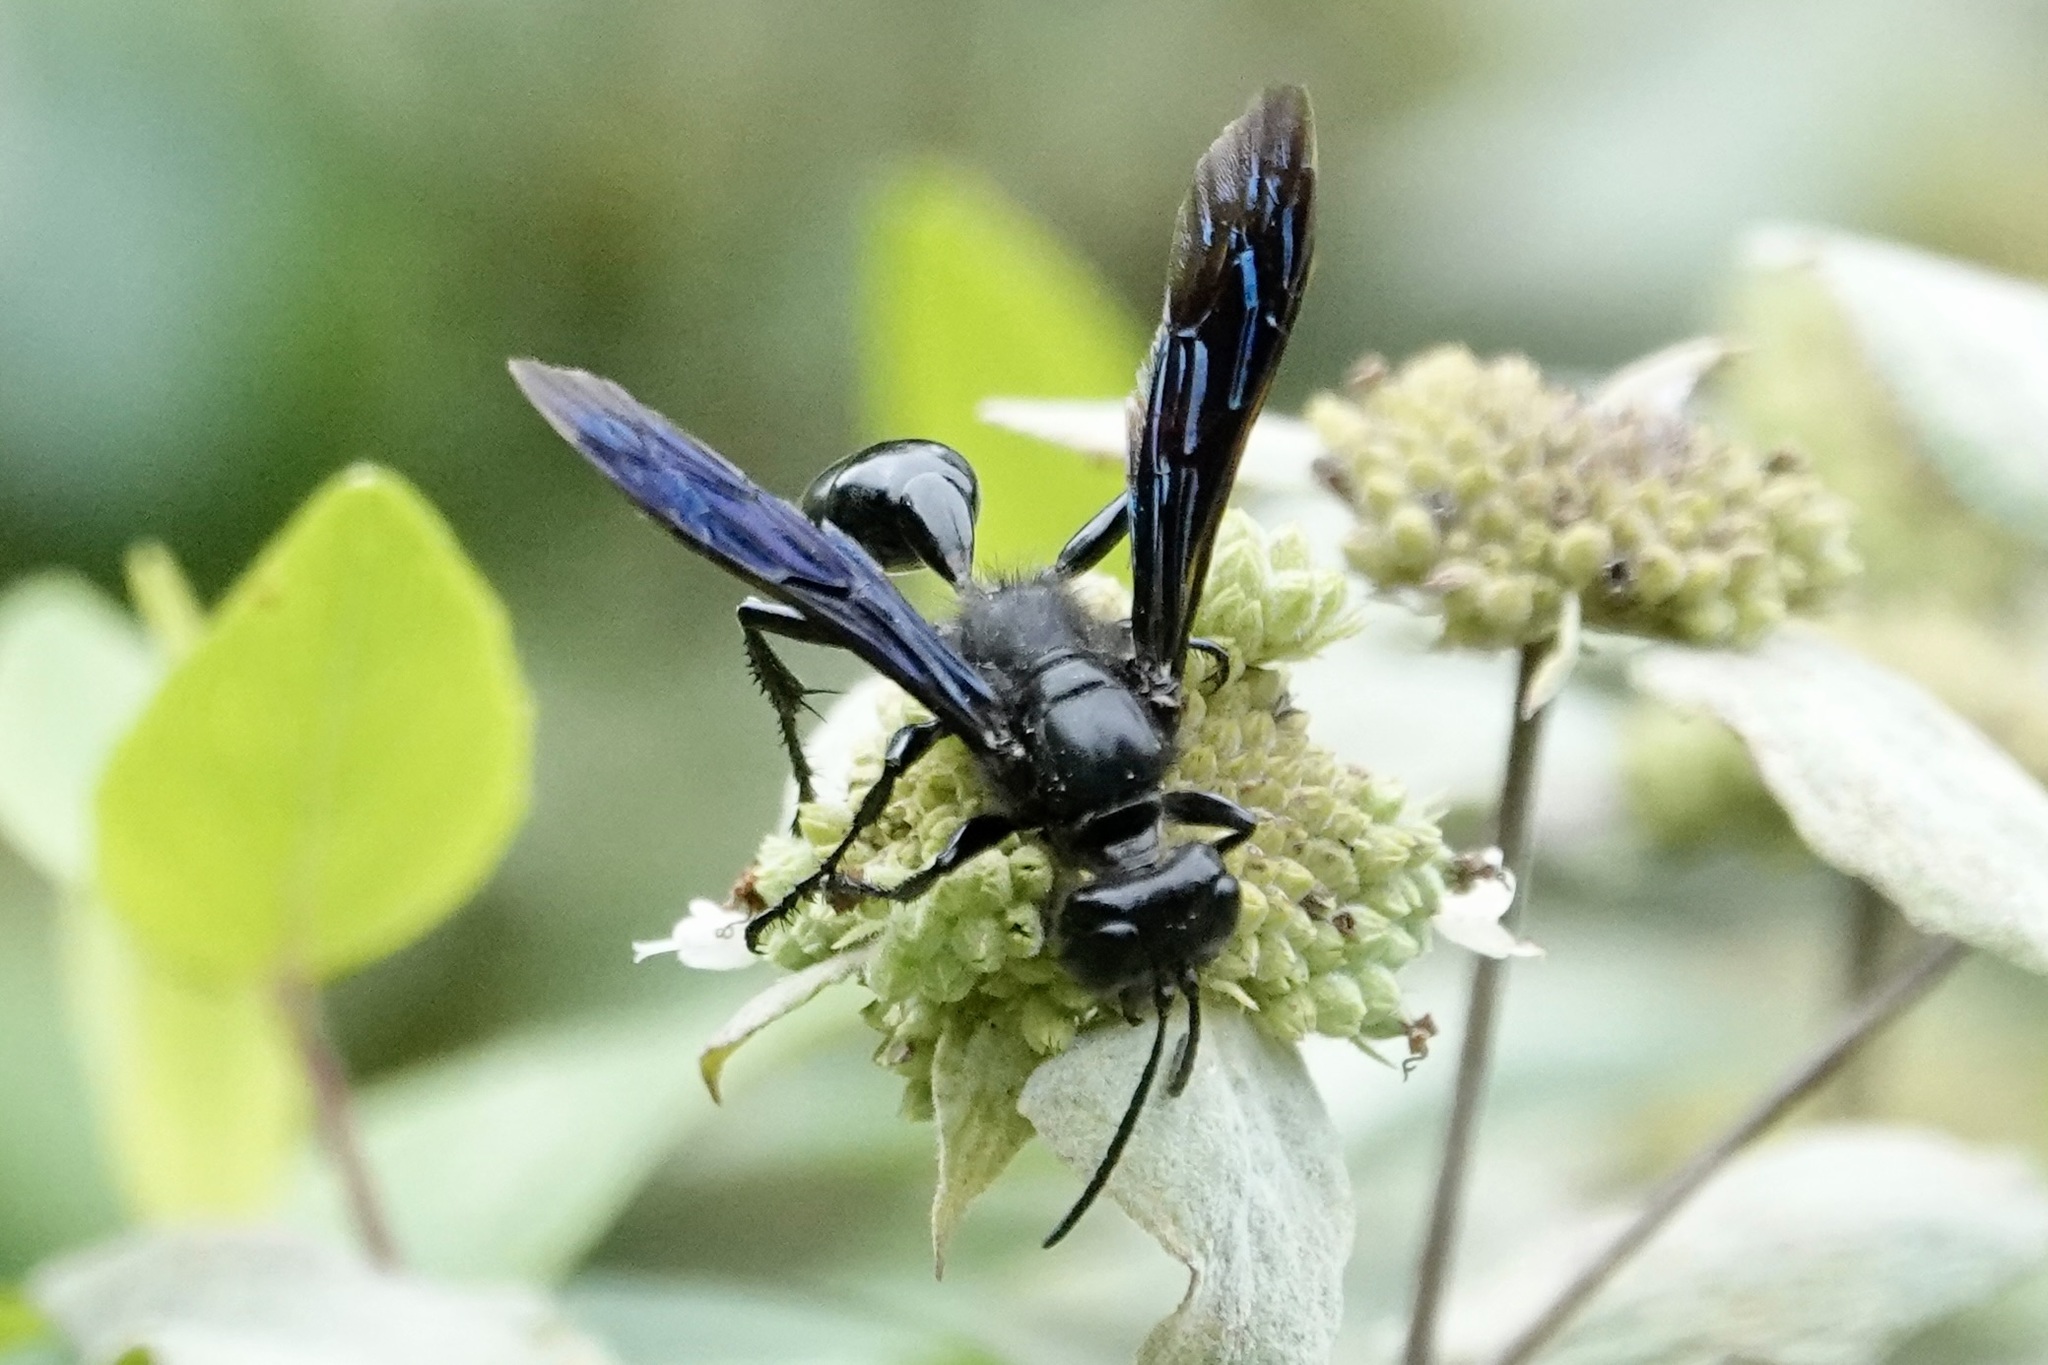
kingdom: Animalia
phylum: Arthropoda
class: Insecta
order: Hymenoptera
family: Sphecidae
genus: Isodontia
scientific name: Isodontia philadelphica
